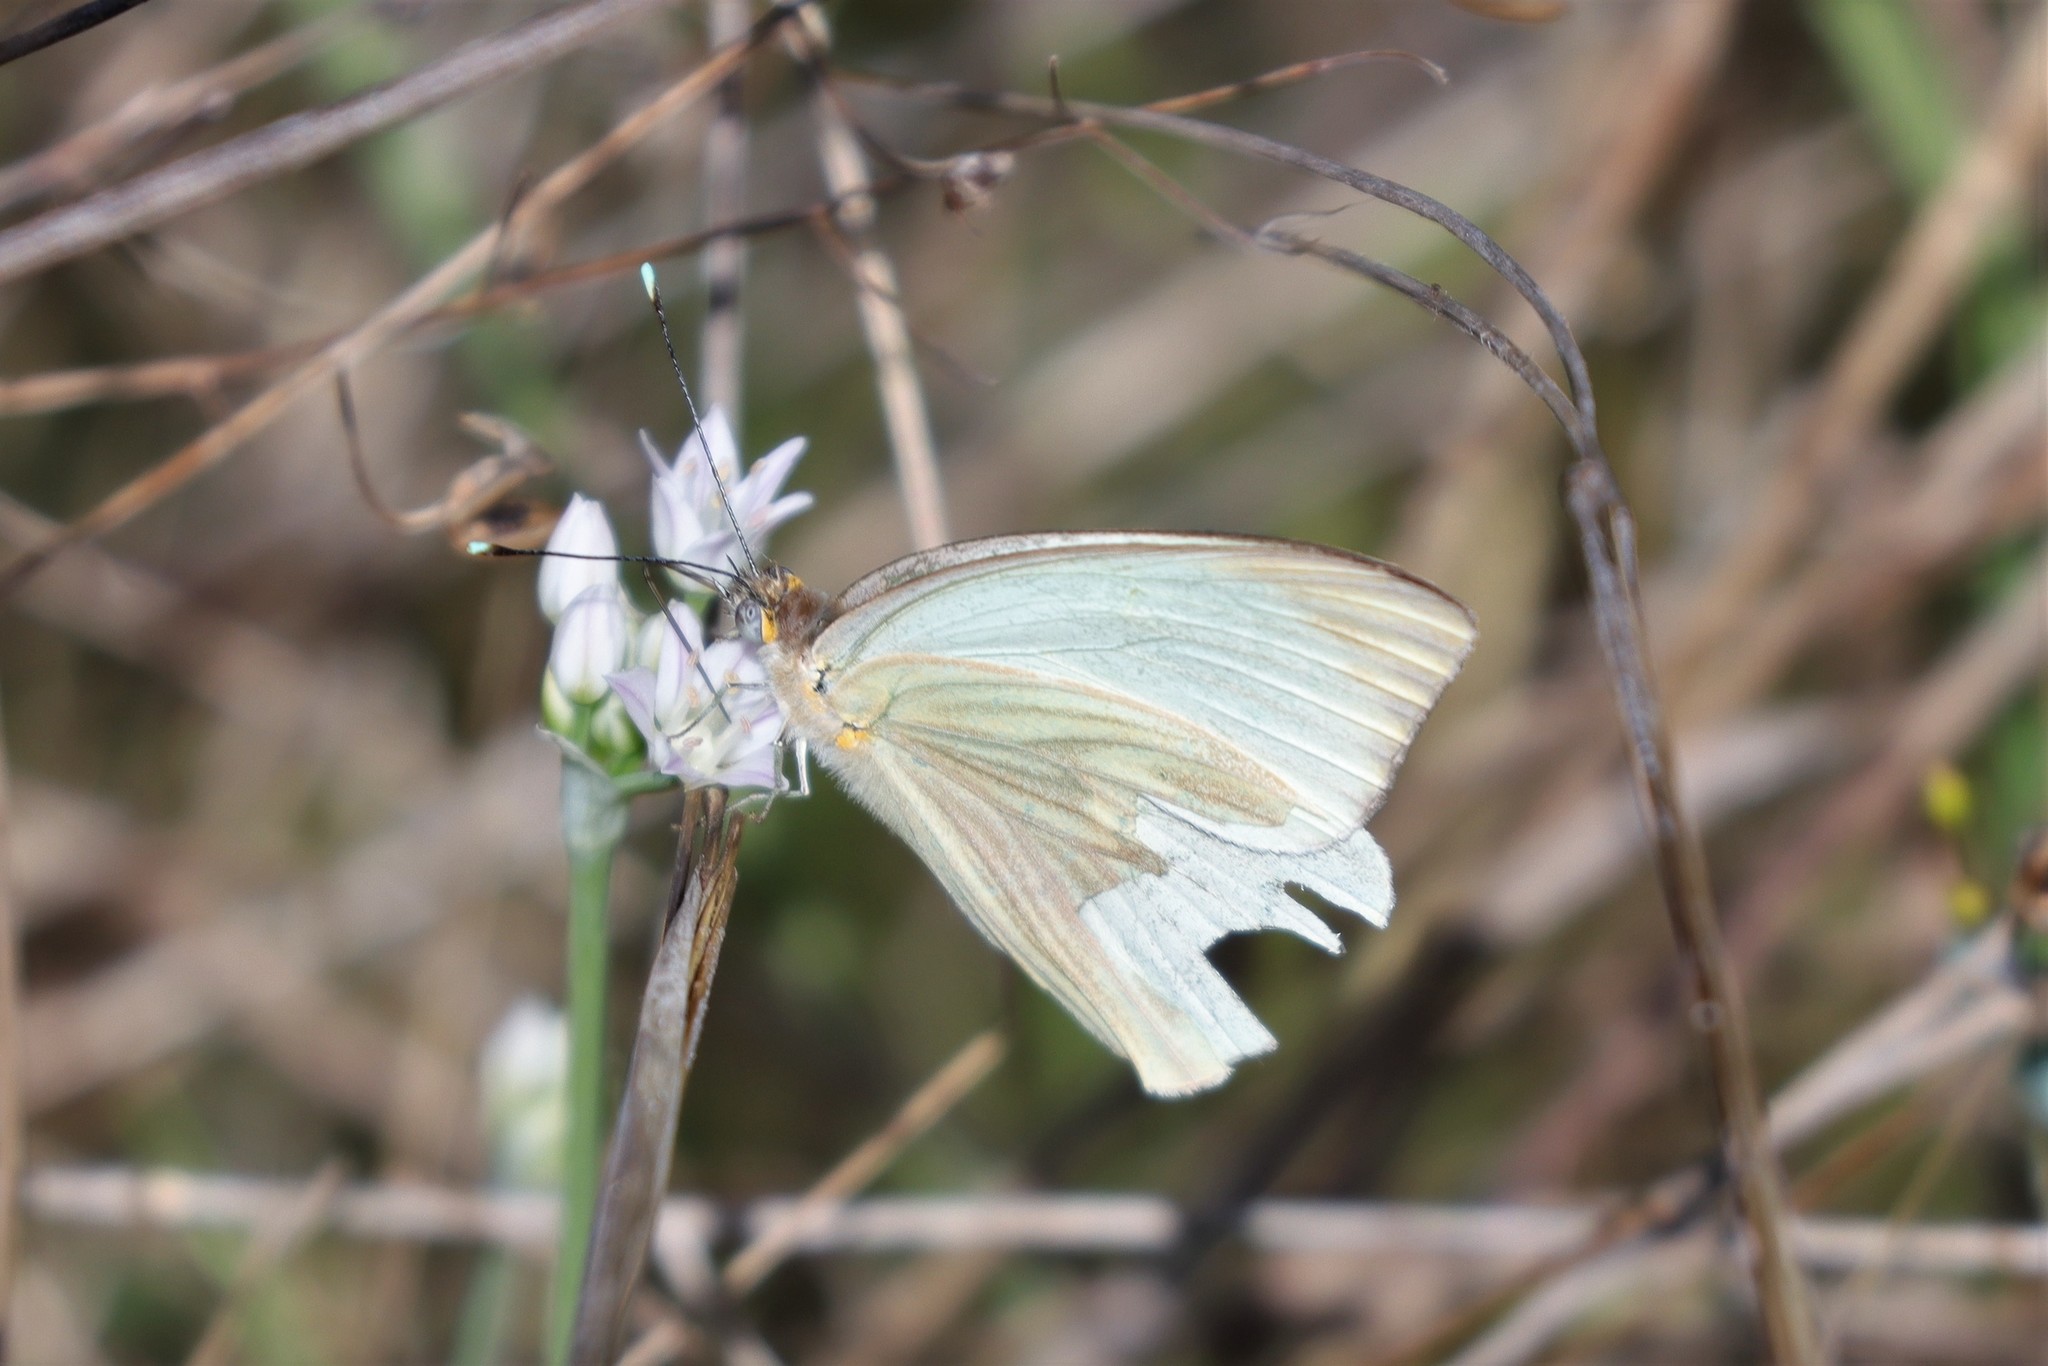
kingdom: Animalia
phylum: Arthropoda
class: Insecta
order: Lepidoptera
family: Pieridae
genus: Ascia
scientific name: Ascia monuste
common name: Great southern white
